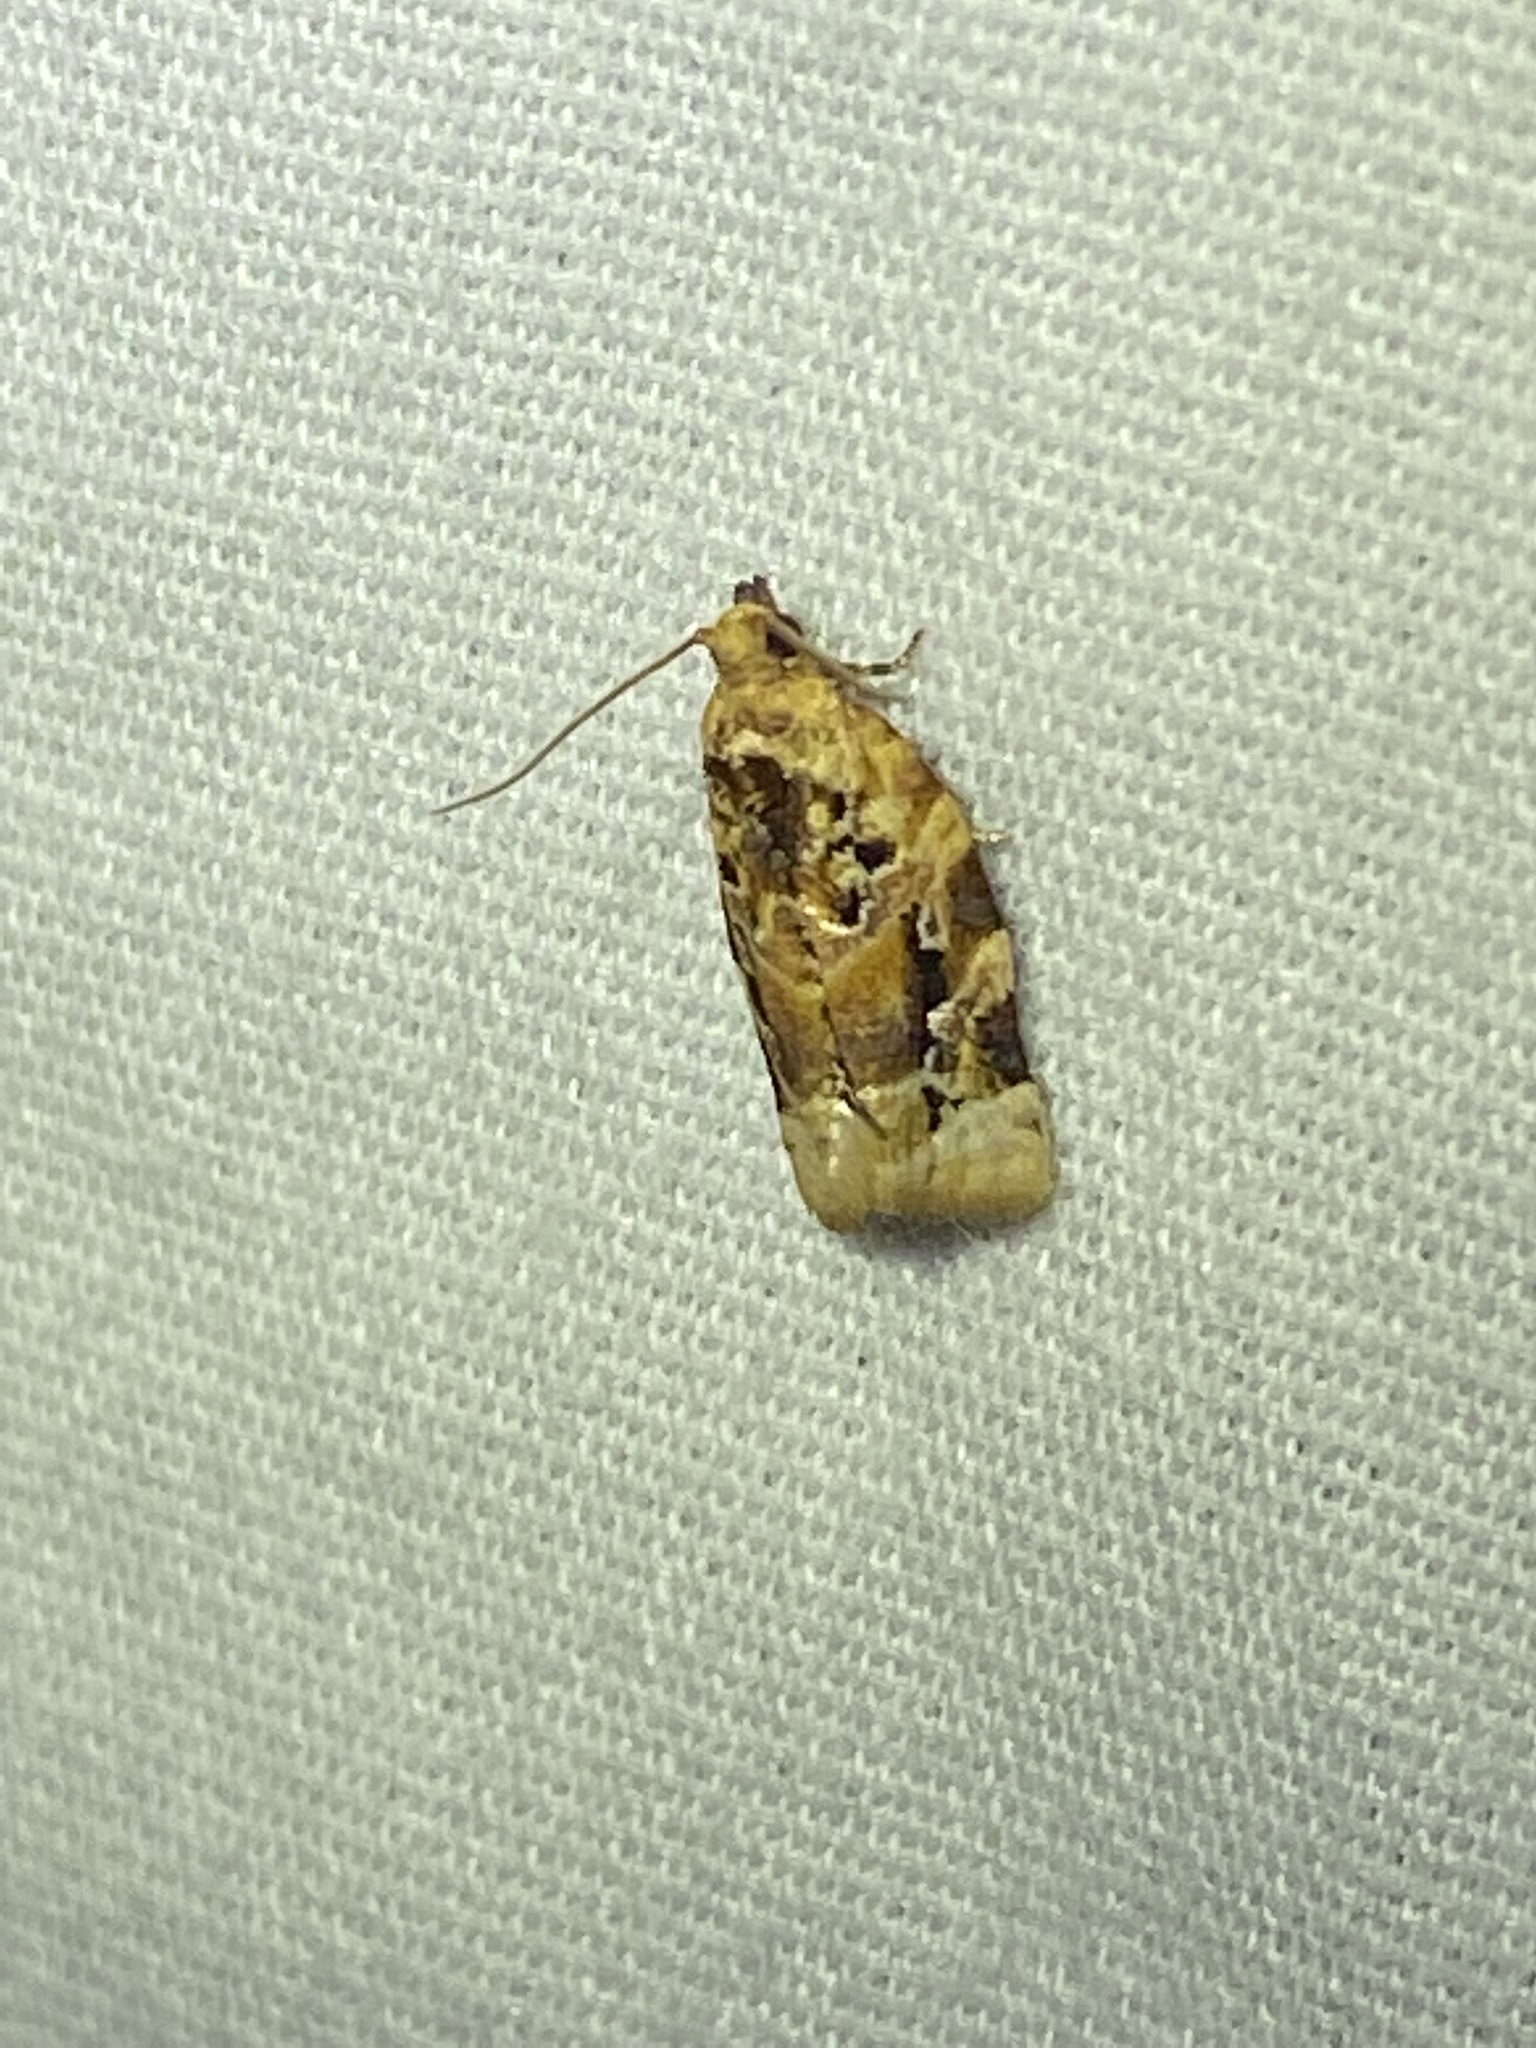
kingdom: Animalia
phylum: Arthropoda
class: Insecta
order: Lepidoptera
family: Tortricidae
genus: Argyrotaenia
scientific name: Argyrotaenia velutinana
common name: Red-banded leafroller moth
